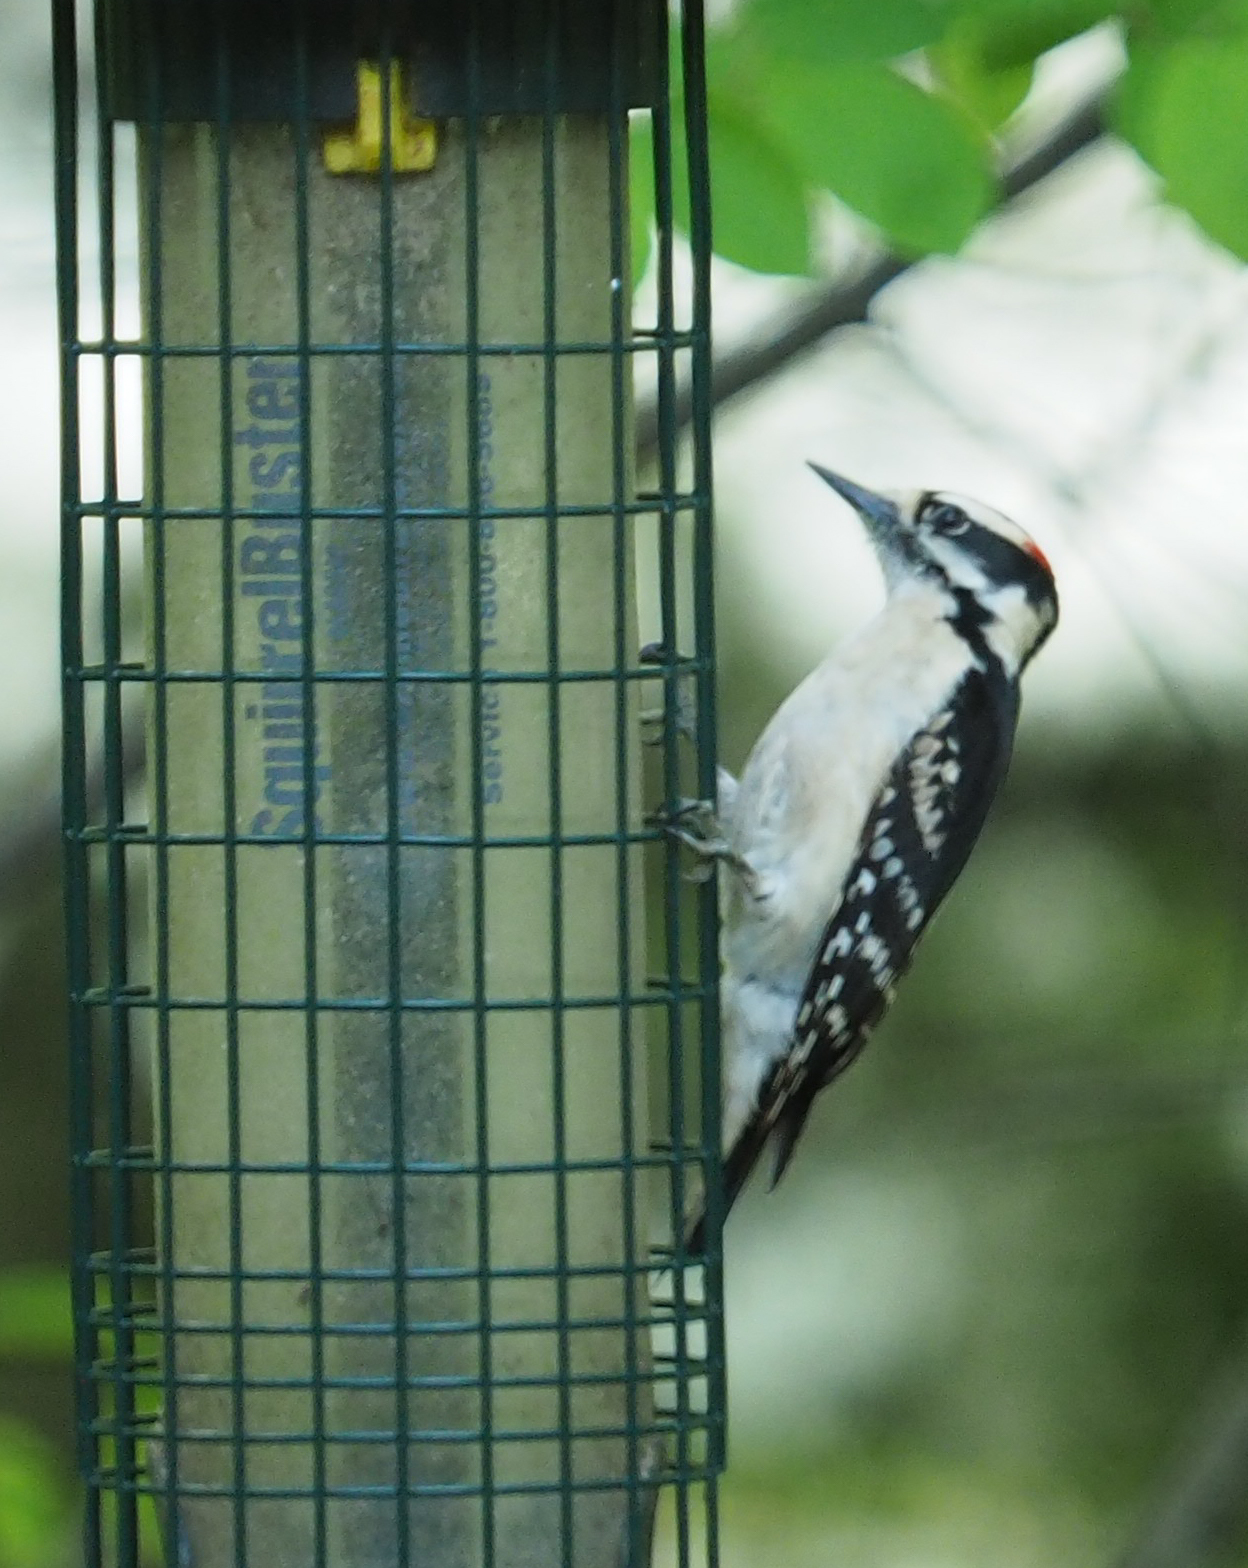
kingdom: Animalia
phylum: Chordata
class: Aves
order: Piciformes
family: Picidae
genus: Dryobates
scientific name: Dryobates pubescens
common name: Downy woodpecker
